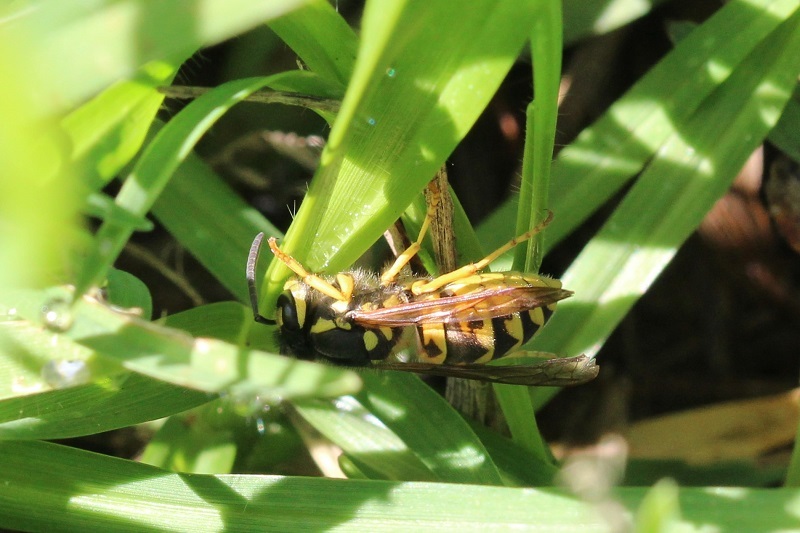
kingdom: Animalia
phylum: Arthropoda
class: Insecta
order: Hymenoptera
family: Vespidae
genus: Vespula
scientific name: Vespula germanica
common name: German wasp
